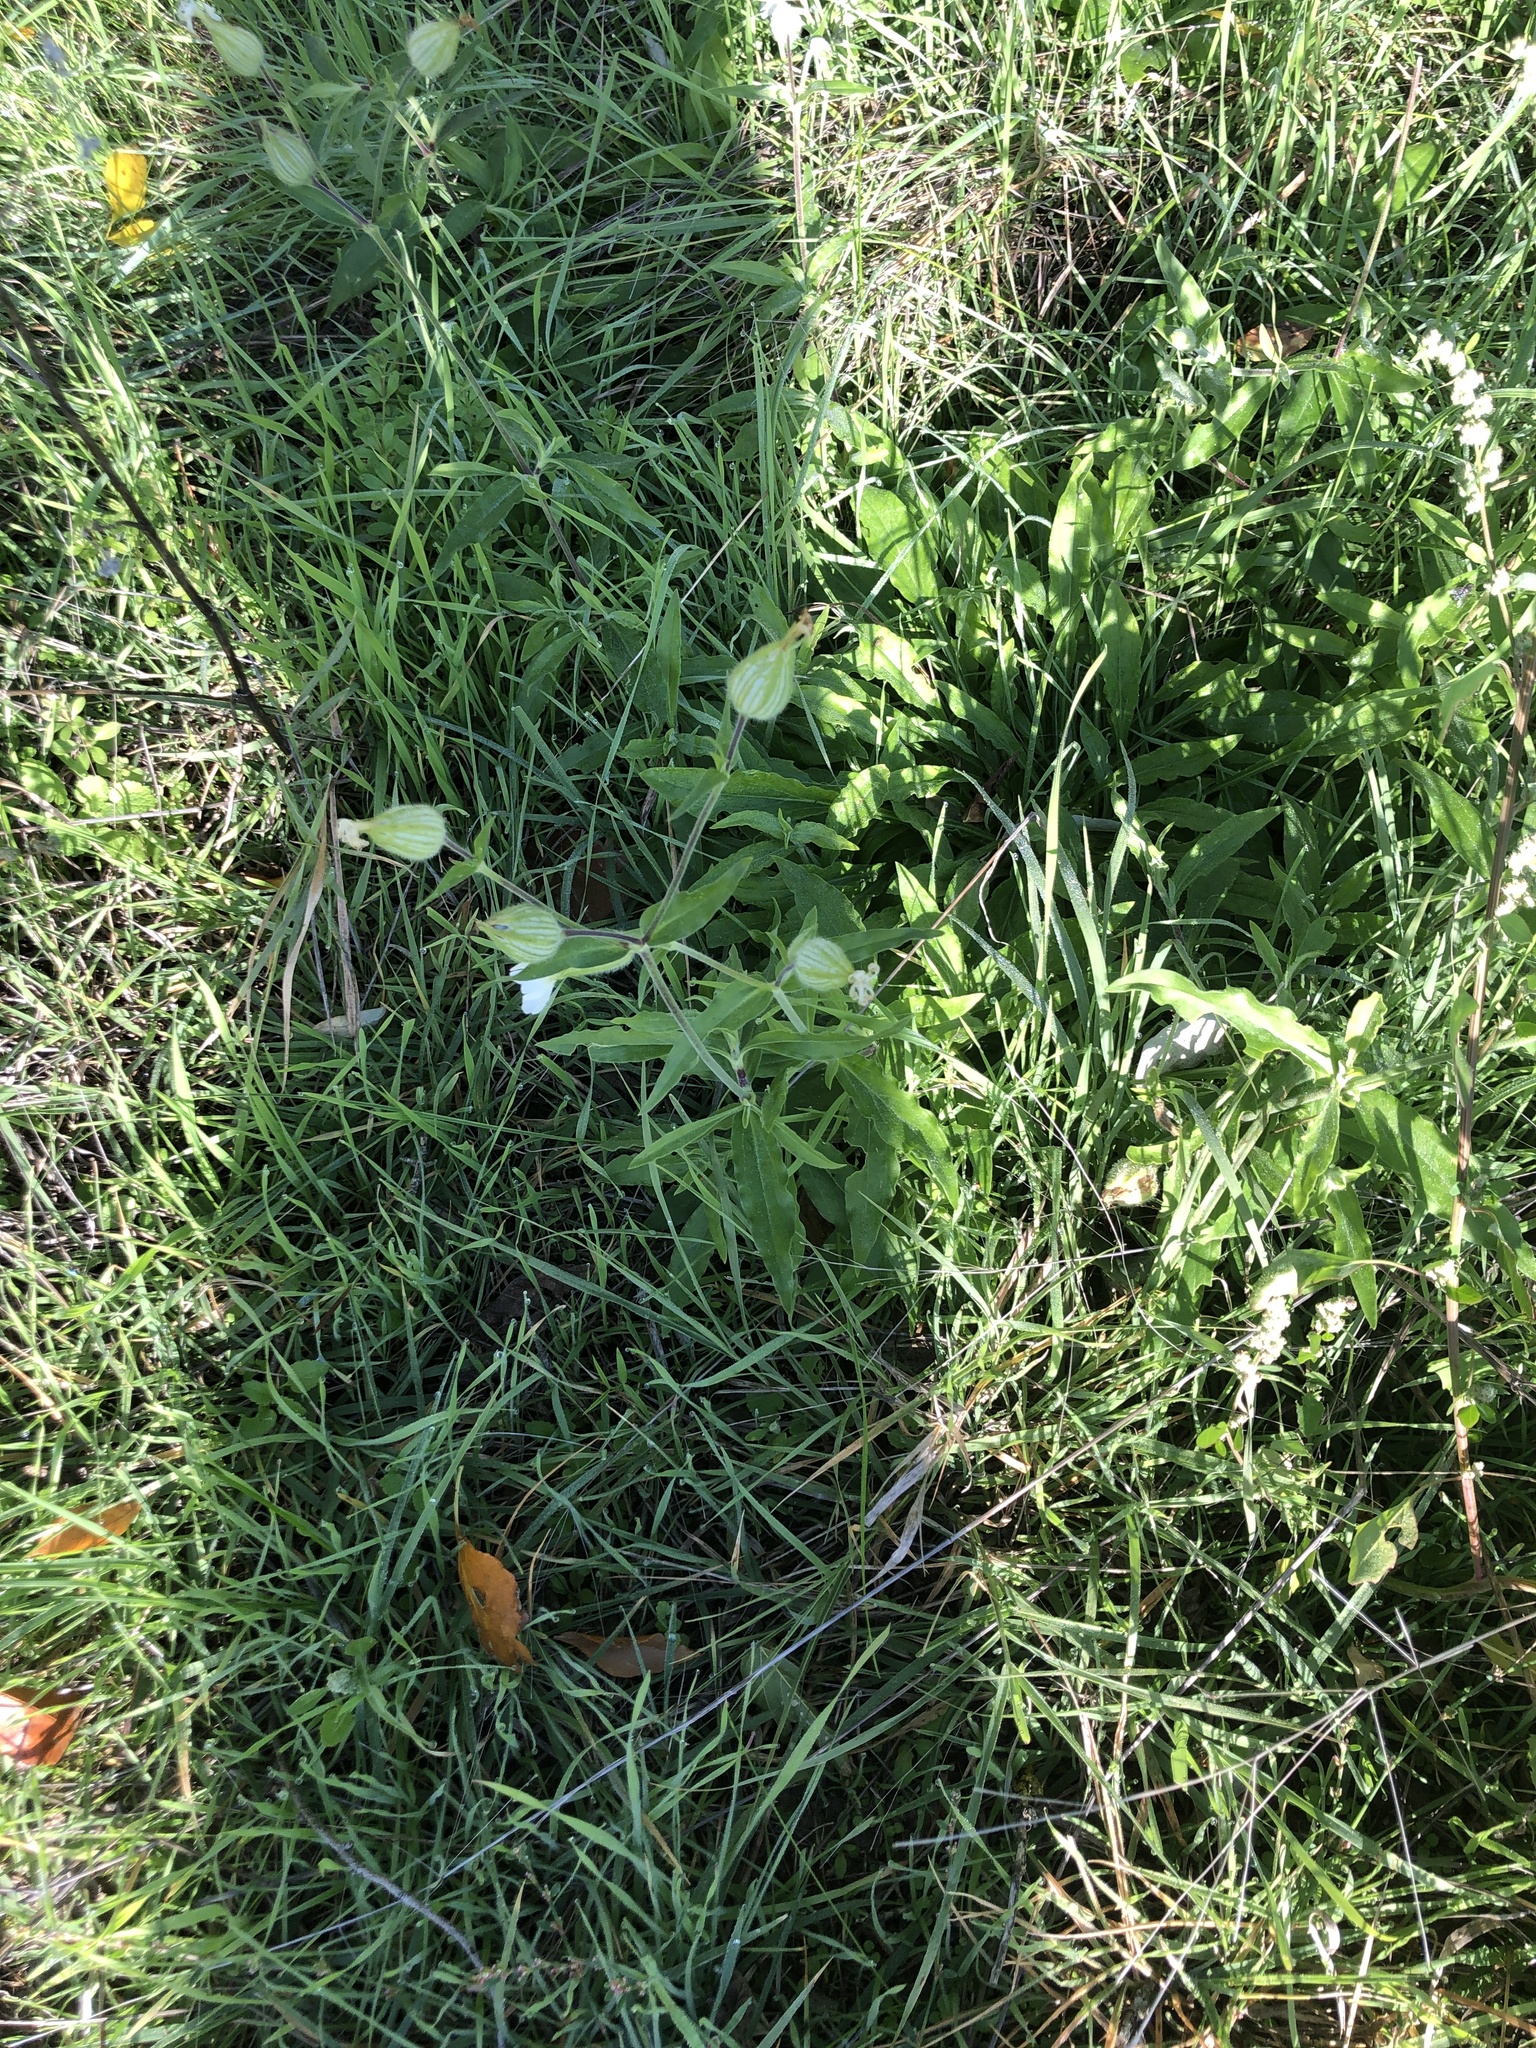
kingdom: Plantae
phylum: Tracheophyta
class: Magnoliopsida
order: Caryophyllales
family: Caryophyllaceae
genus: Silene
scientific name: Silene latifolia
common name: White campion
